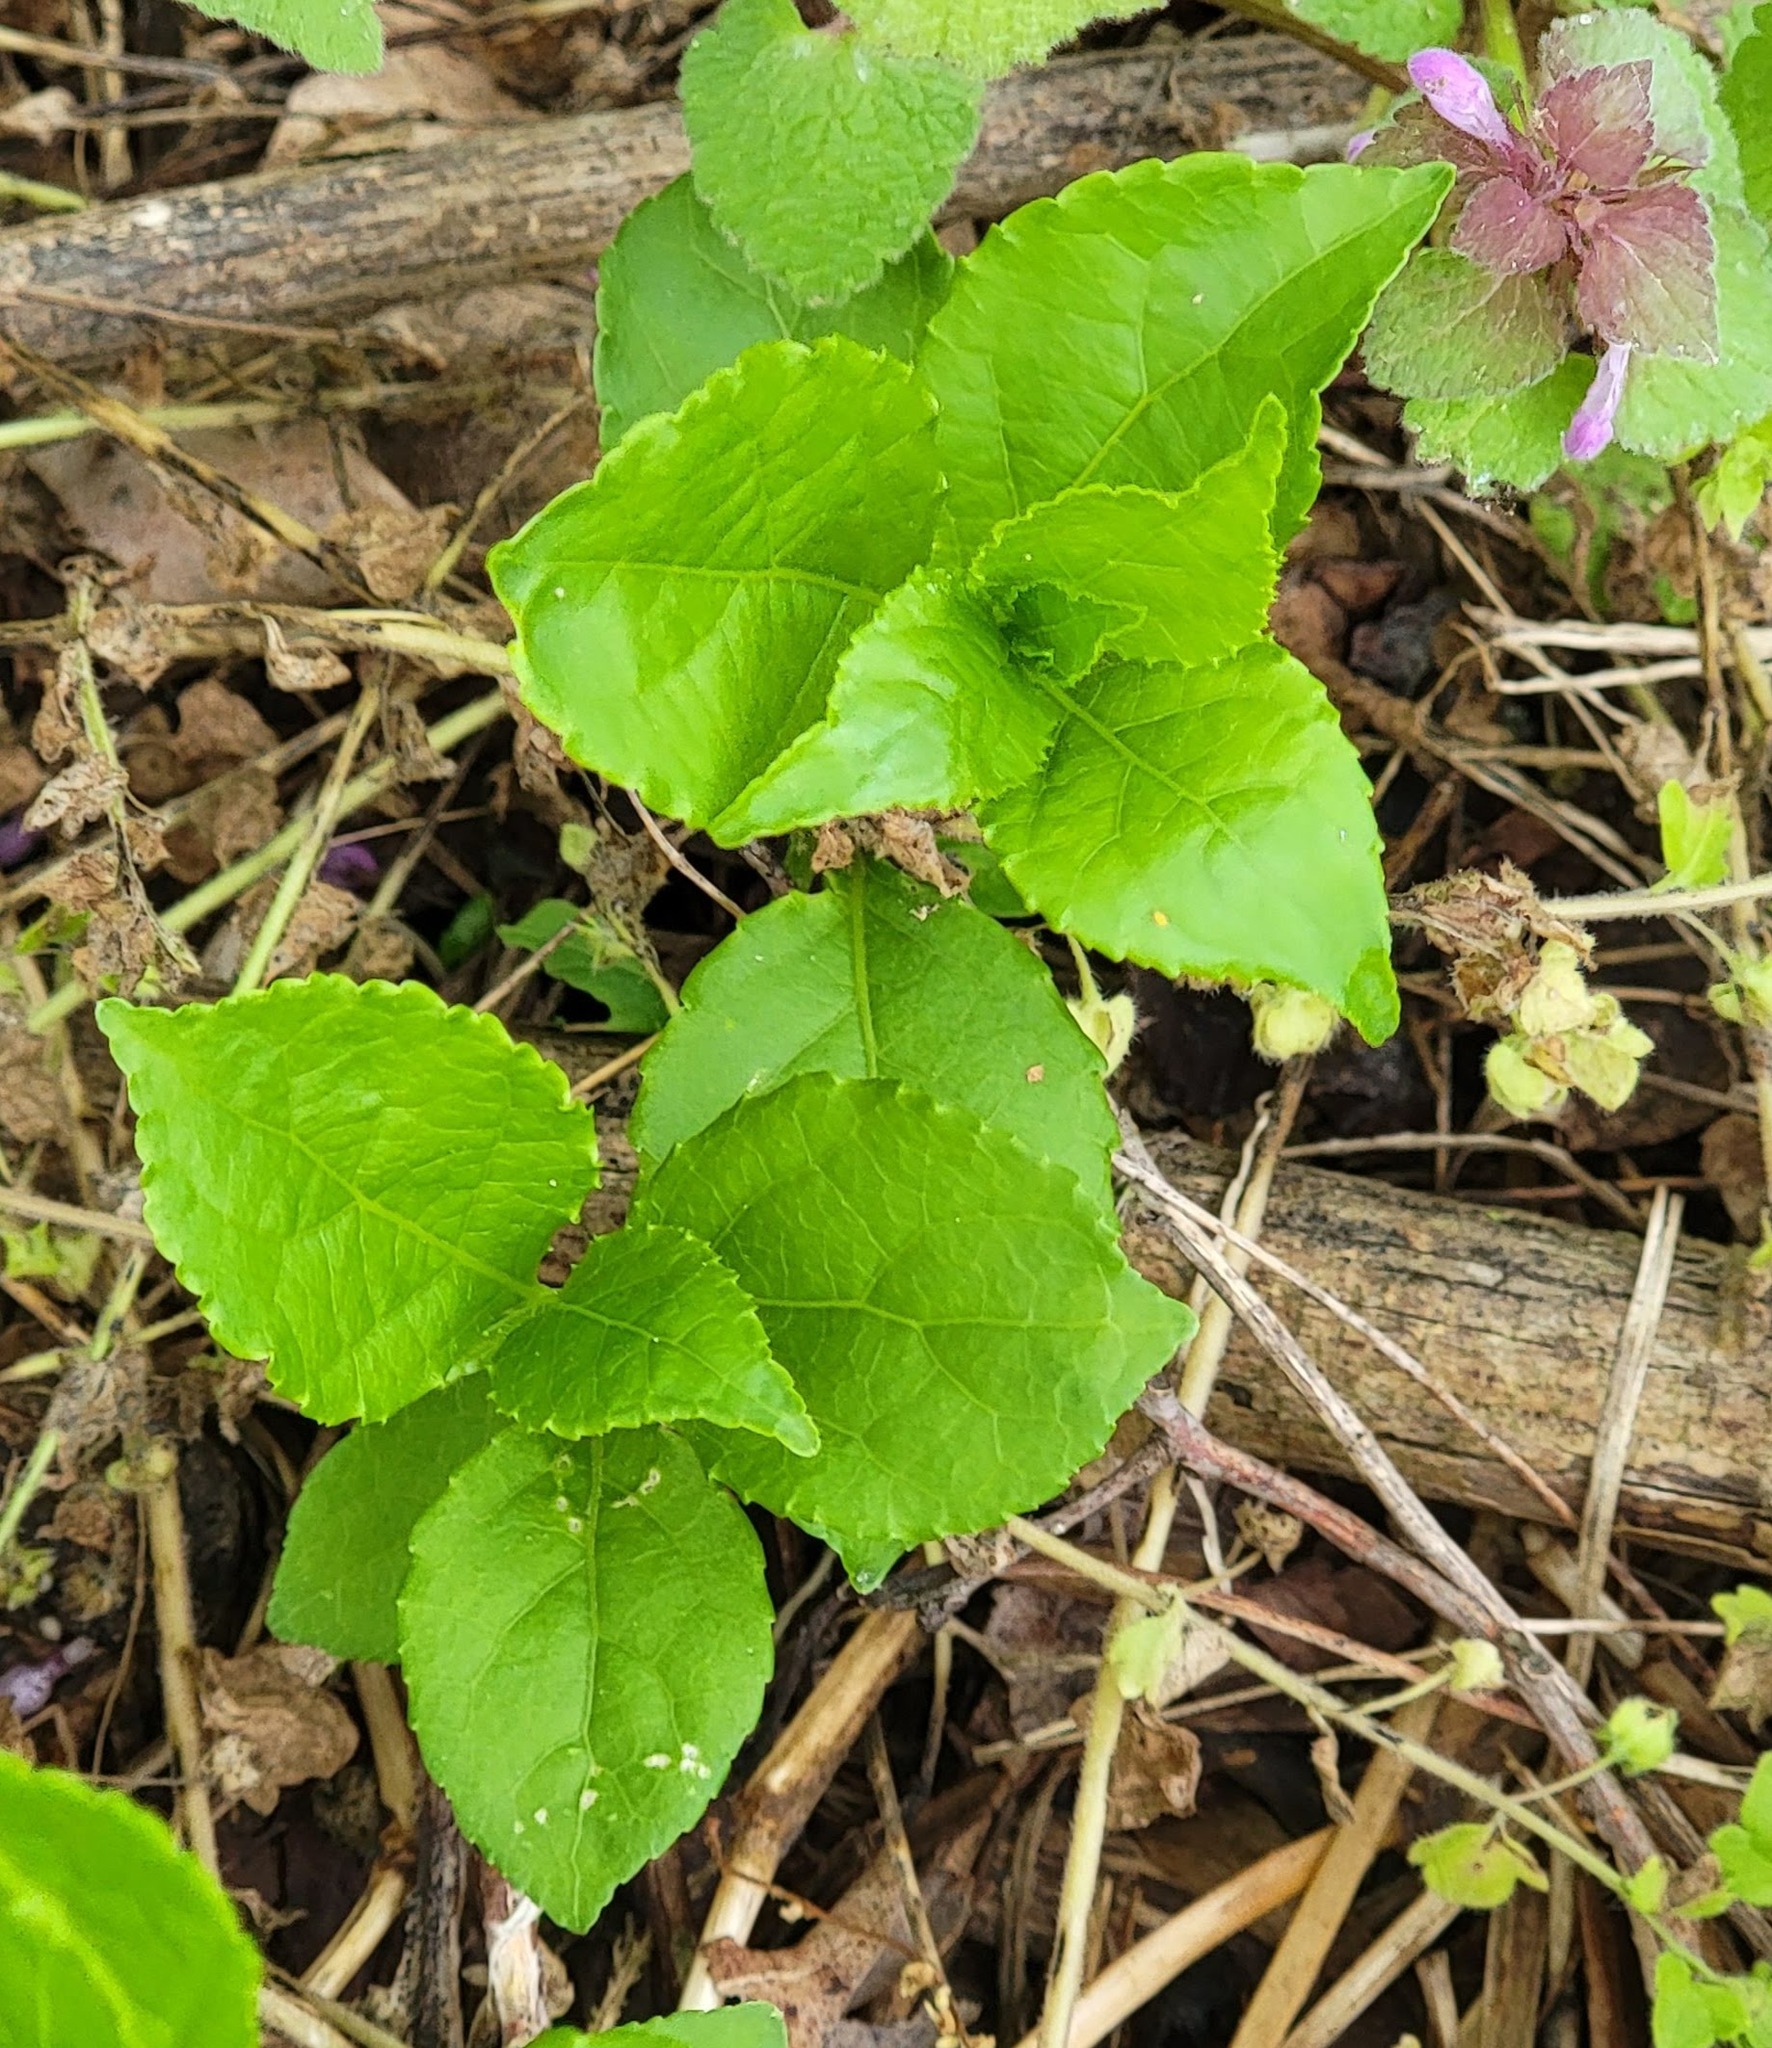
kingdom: Plantae
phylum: Tracheophyta
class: Magnoliopsida
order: Celastrales
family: Celastraceae
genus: Celastrus
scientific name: Celastrus orbiculatus
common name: Oriental bittersweet
